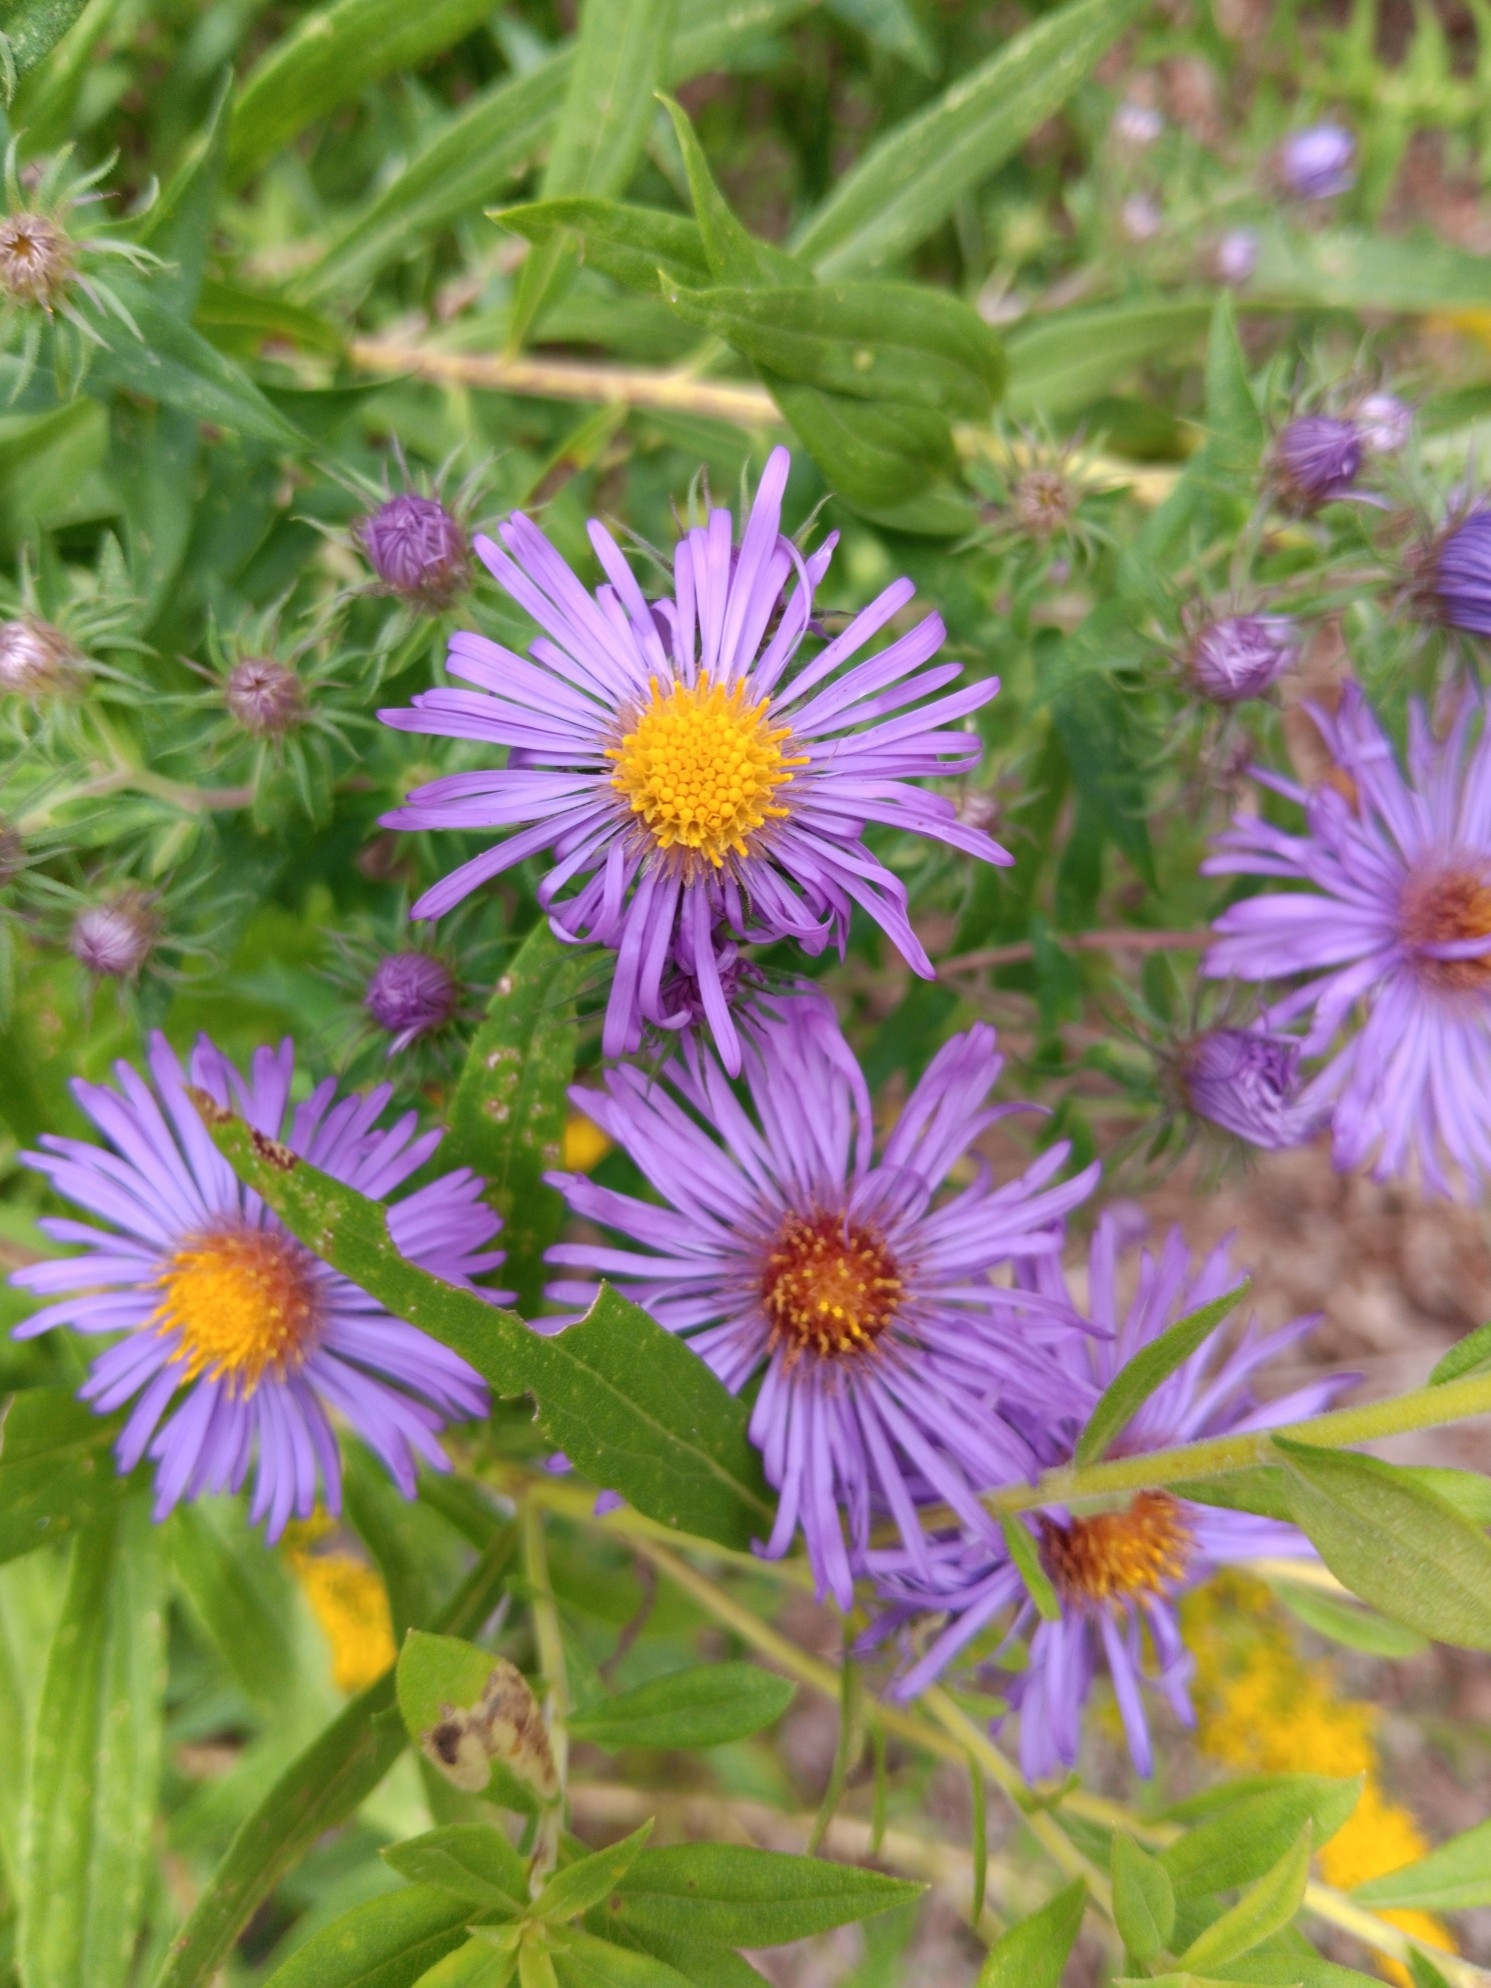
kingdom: Plantae
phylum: Tracheophyta
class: Magnoliopsida
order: Asterales
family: Asteraceae
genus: Symphyotrichum
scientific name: Symphyotrichum novae-angliae
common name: Michaelmas daisy
